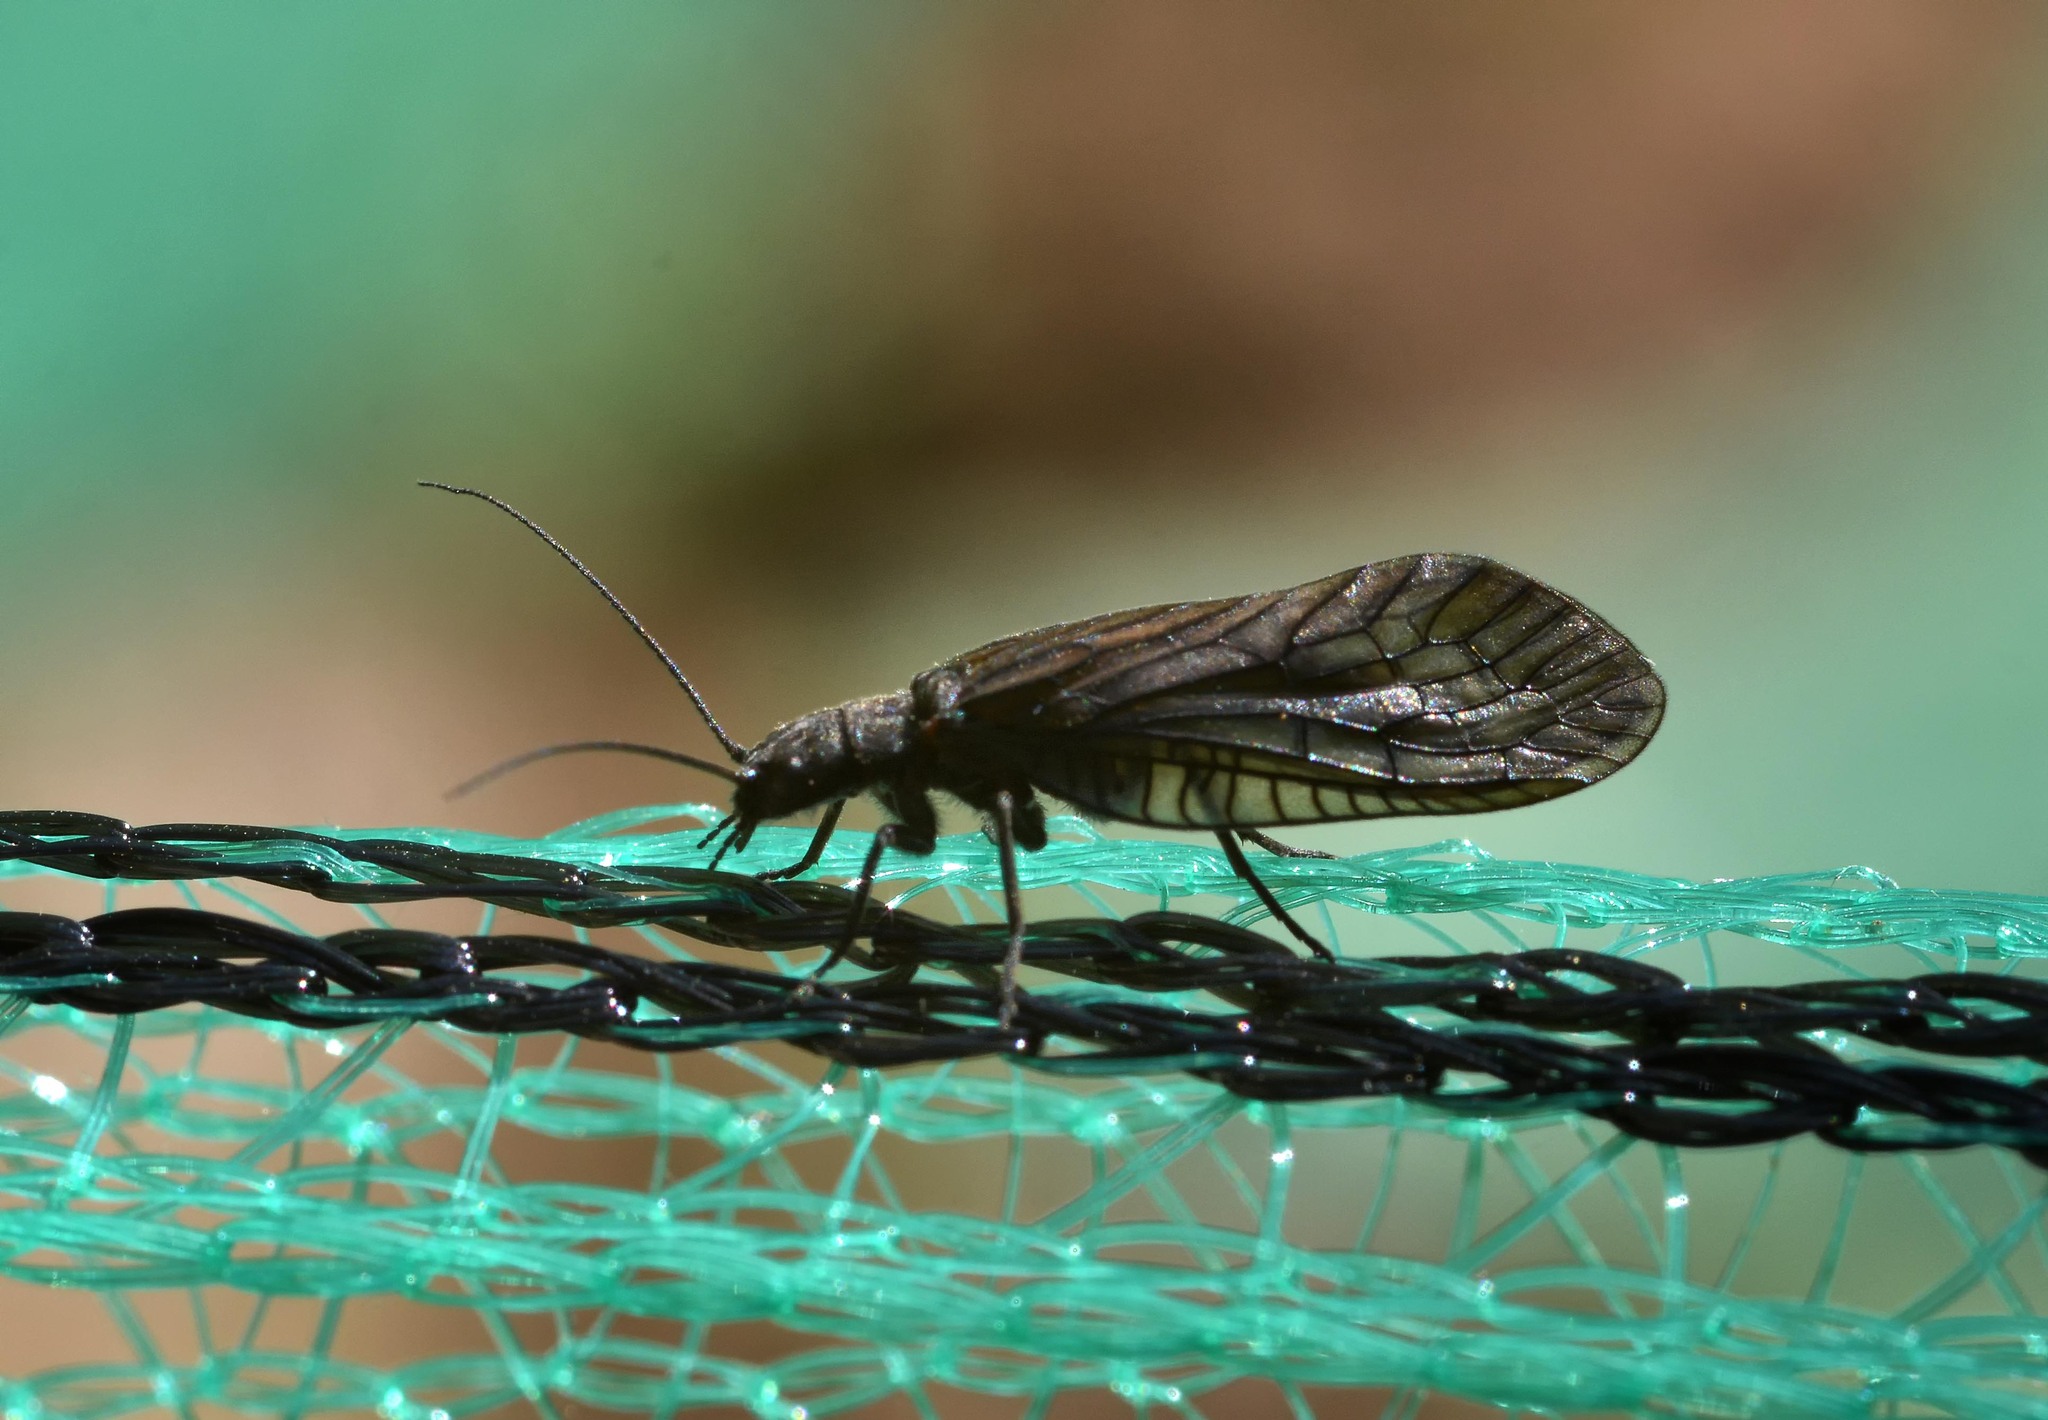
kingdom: Animalia
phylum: Arthropoda
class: Insecta
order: Megaloptera
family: Sialidae
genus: Sialis
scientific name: Sialis
